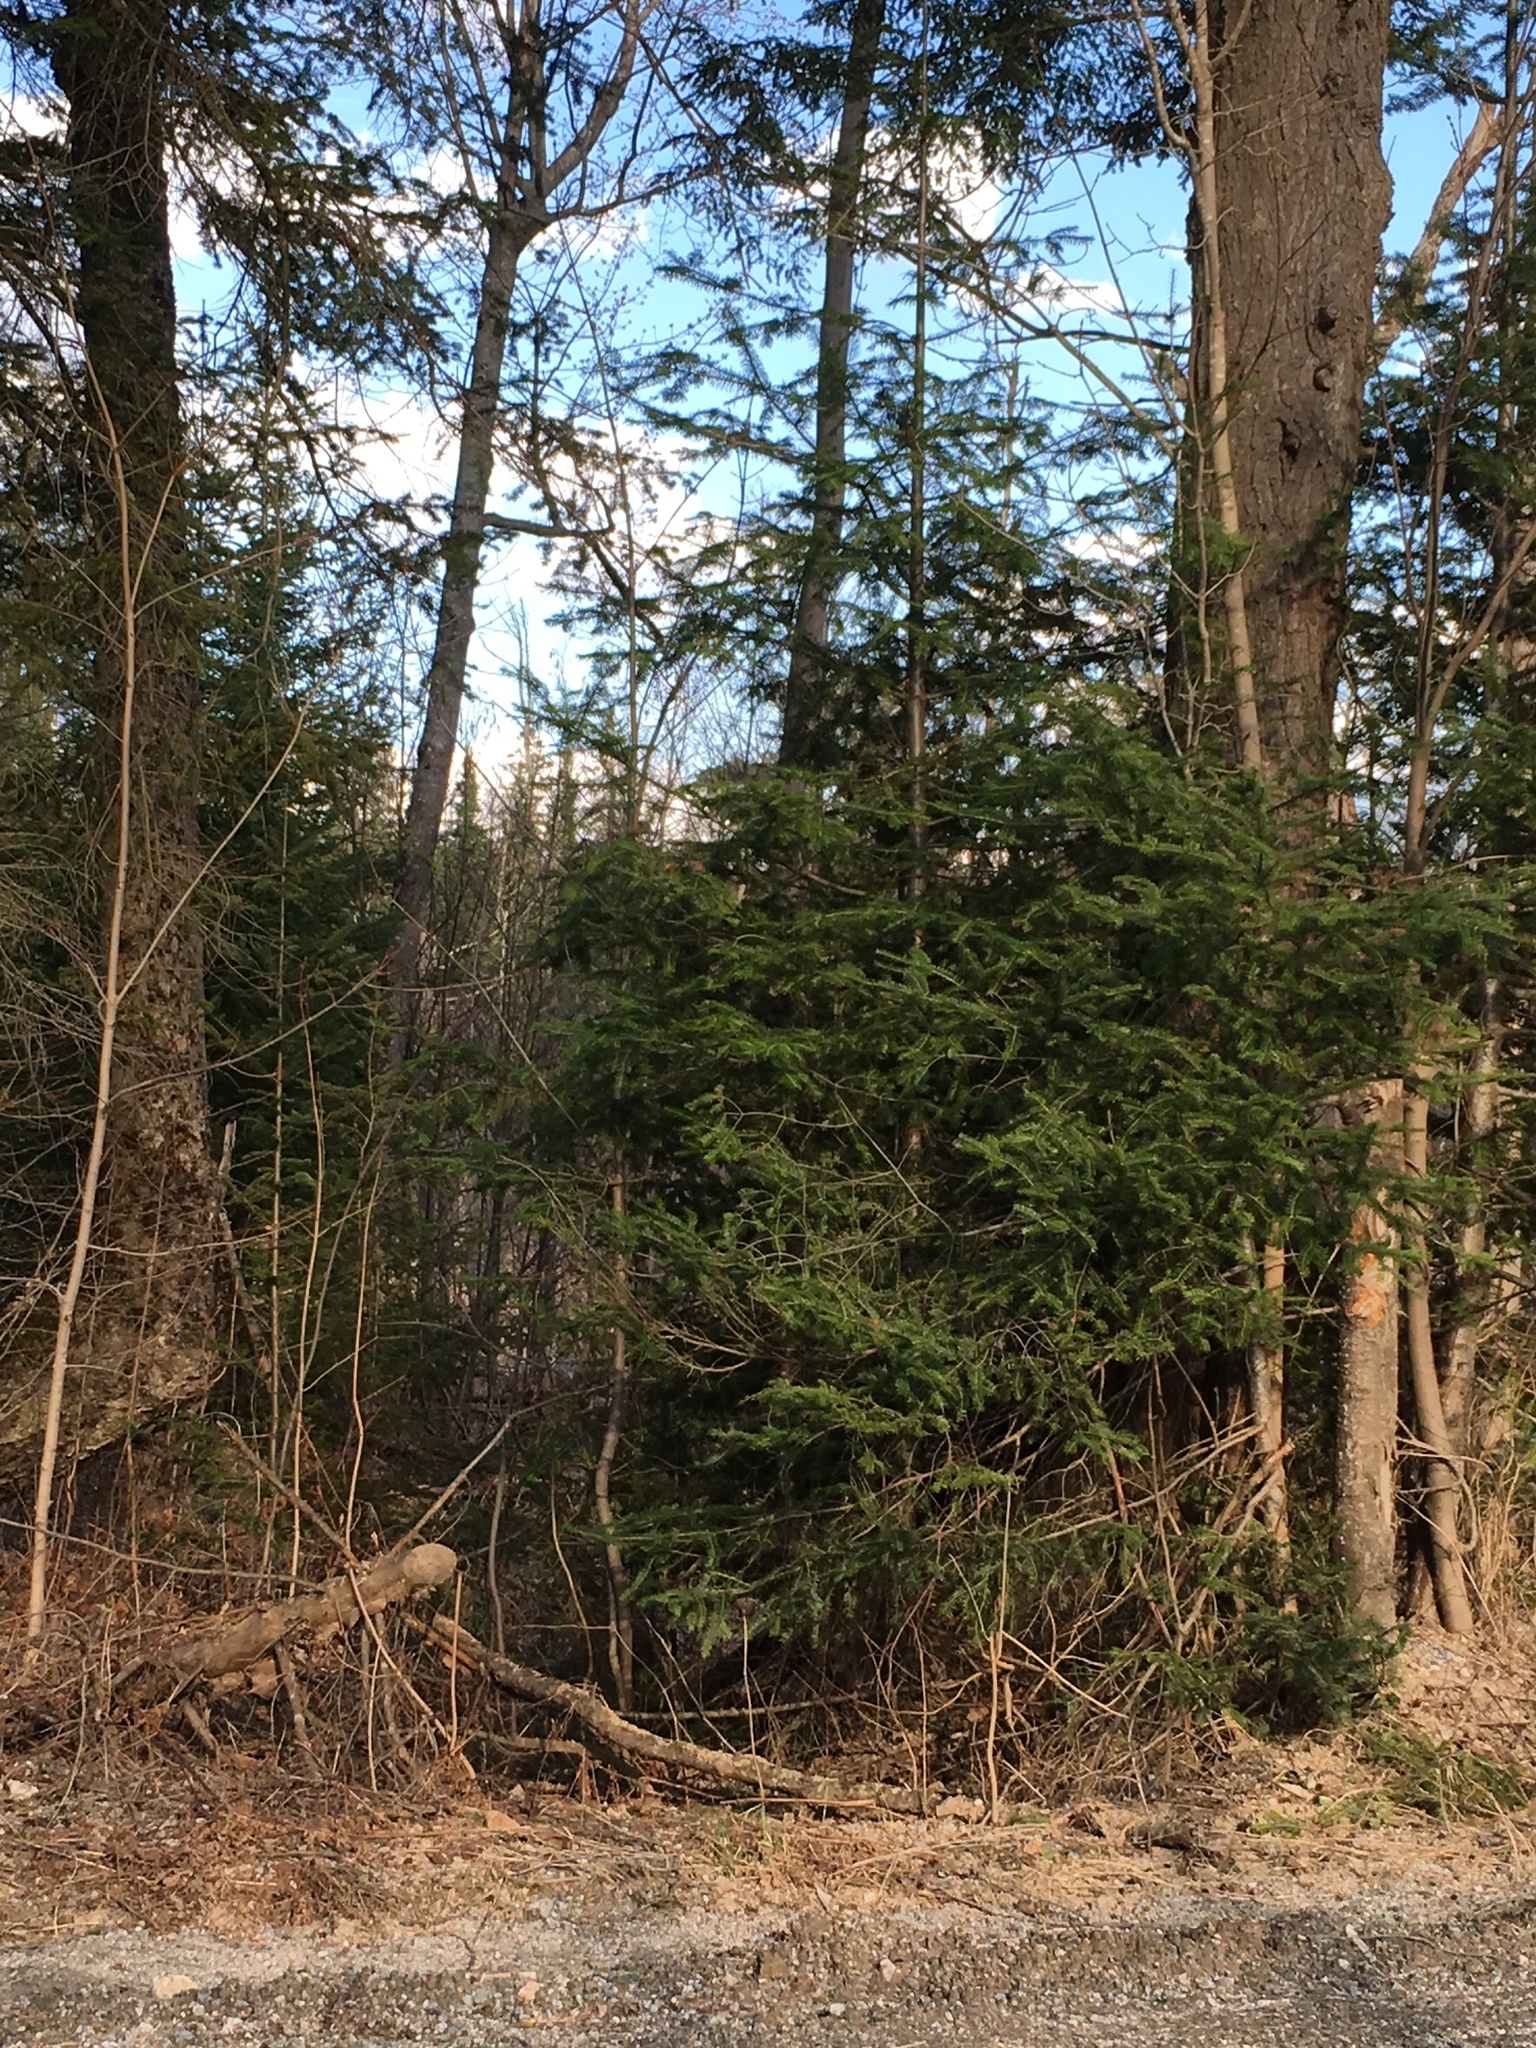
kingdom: Animalia
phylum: Chordata
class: Amphibia
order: Anura
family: Hylidae
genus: Pseudacris
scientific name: Pseudacris crucifer
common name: Spring peeper
